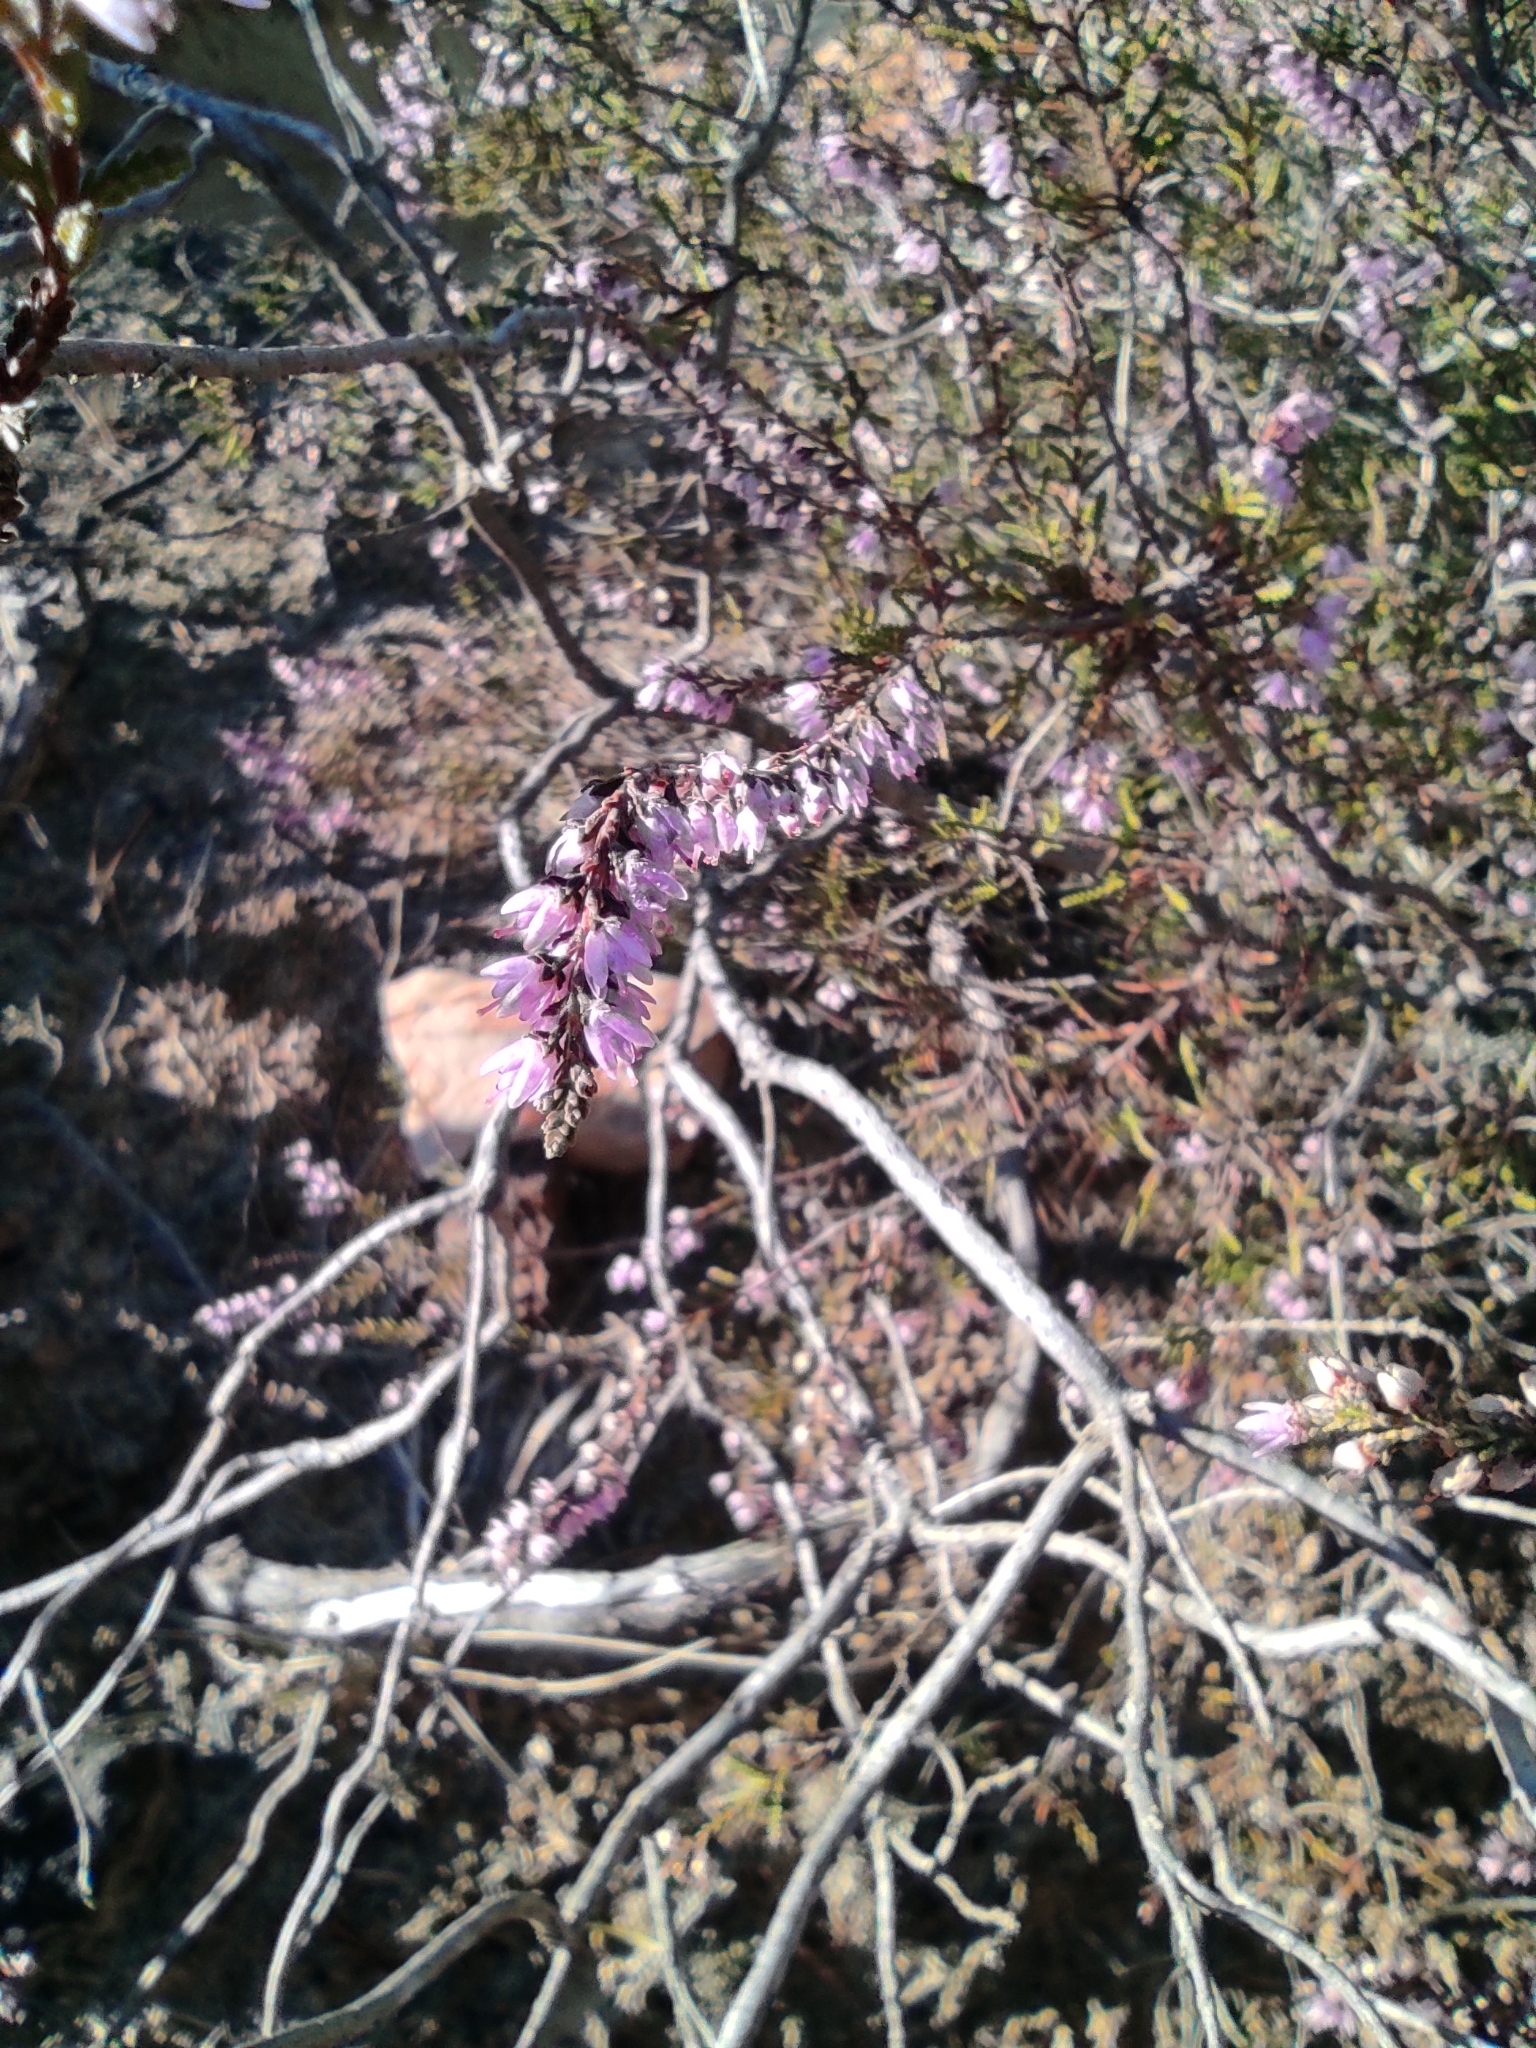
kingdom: Plantae
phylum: Tracheophyta
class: Magnoliopsida
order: Ericales
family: Ericaceae
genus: Calluna
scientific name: Calluna vulgaris
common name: Heather
